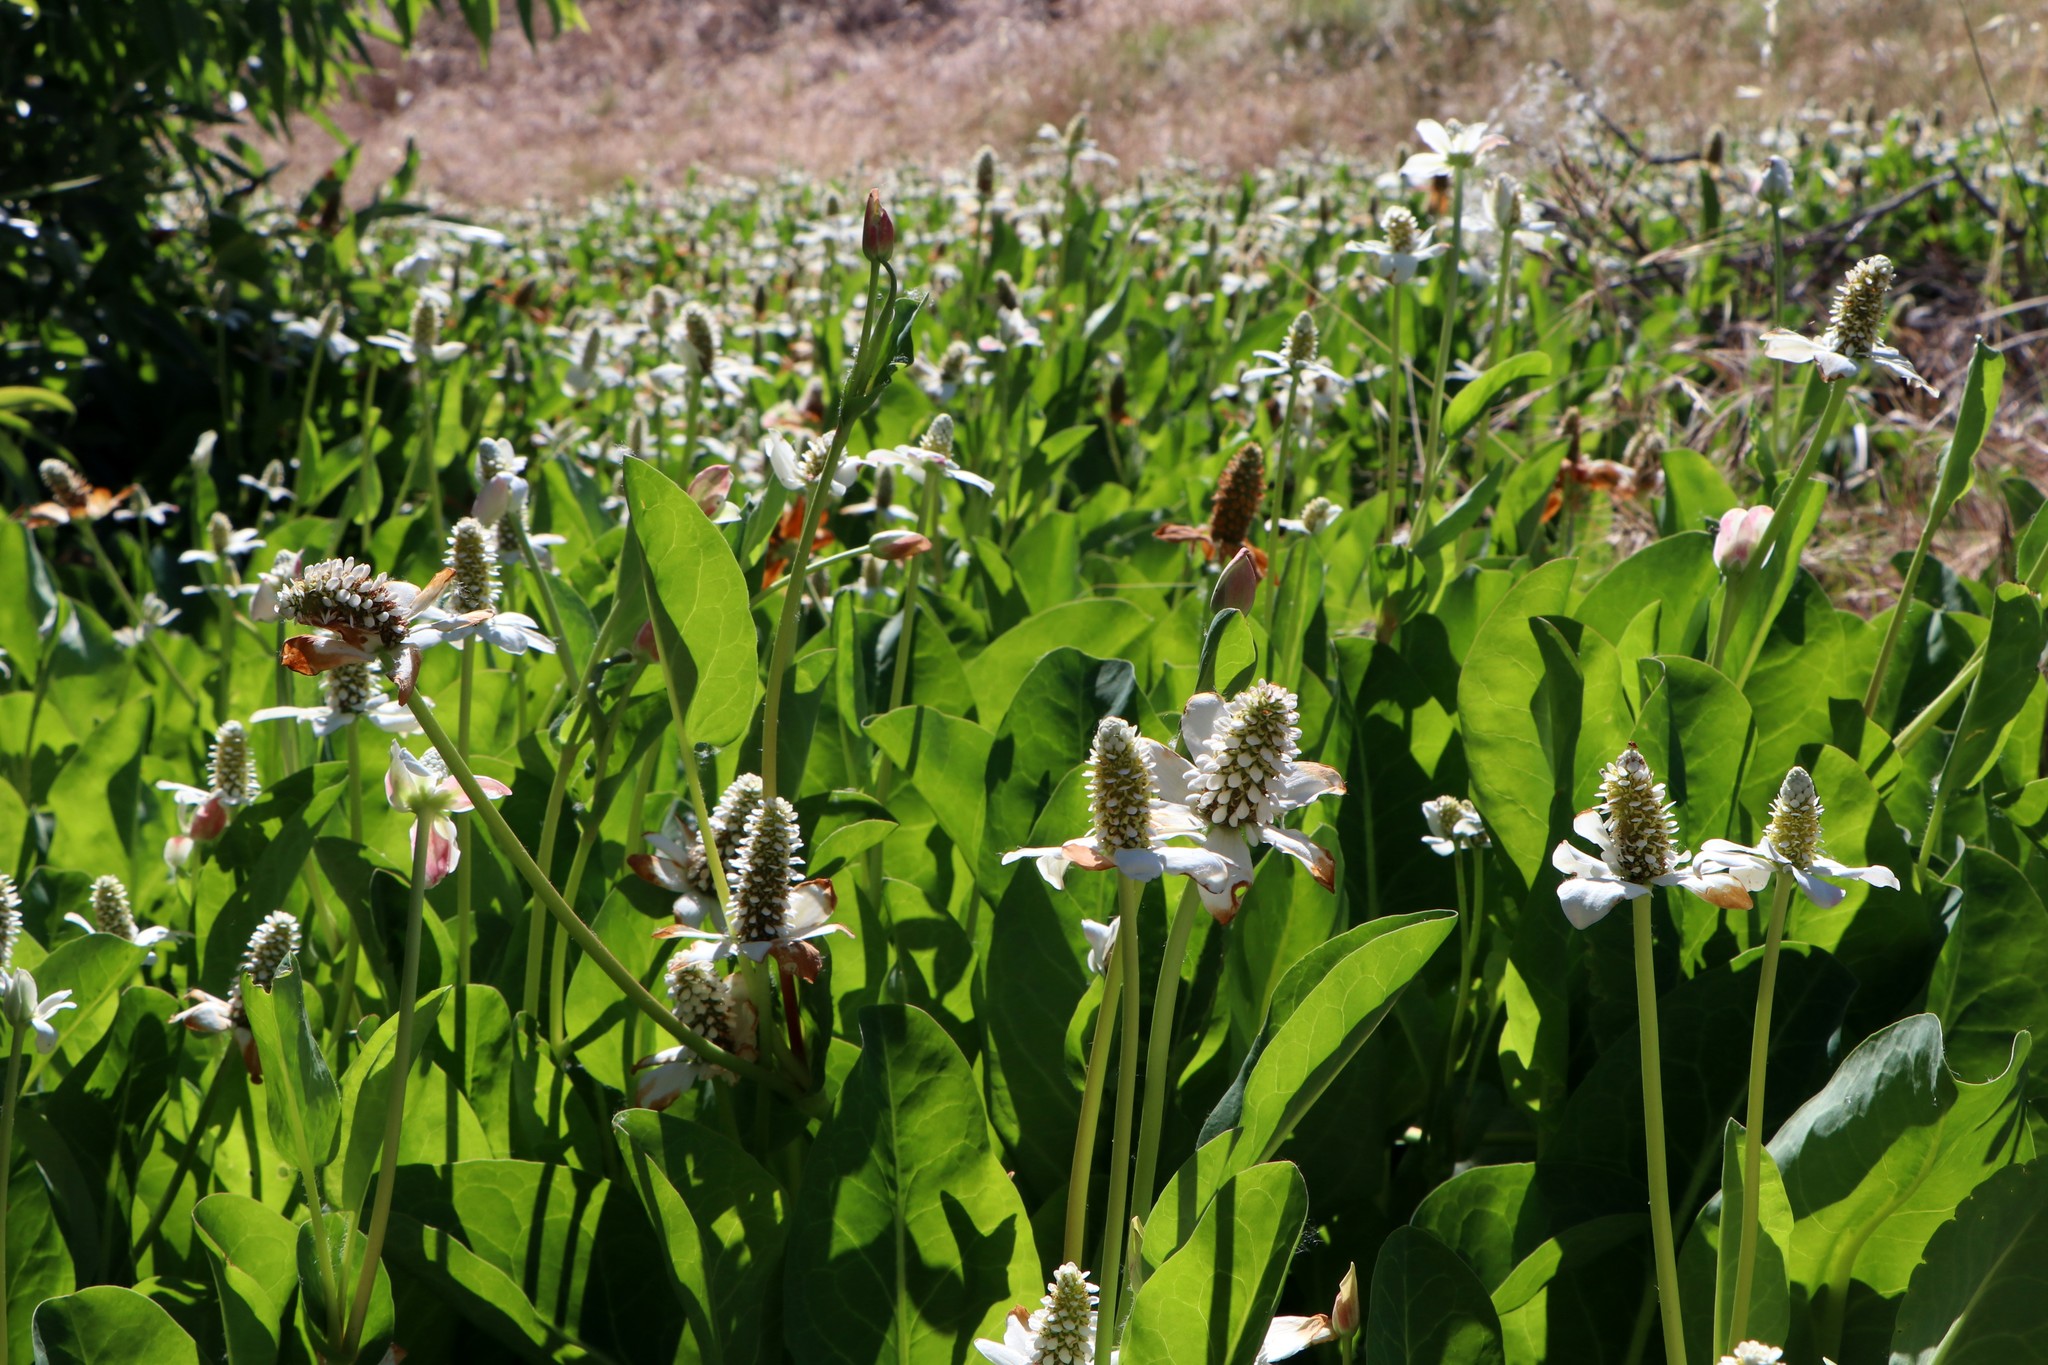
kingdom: Plantae
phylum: Tracheophyta
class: Magnoliopsida
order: Piperales
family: Saururaceae
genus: Anemopsis
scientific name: Anemopsis californica
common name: Apache-beads
